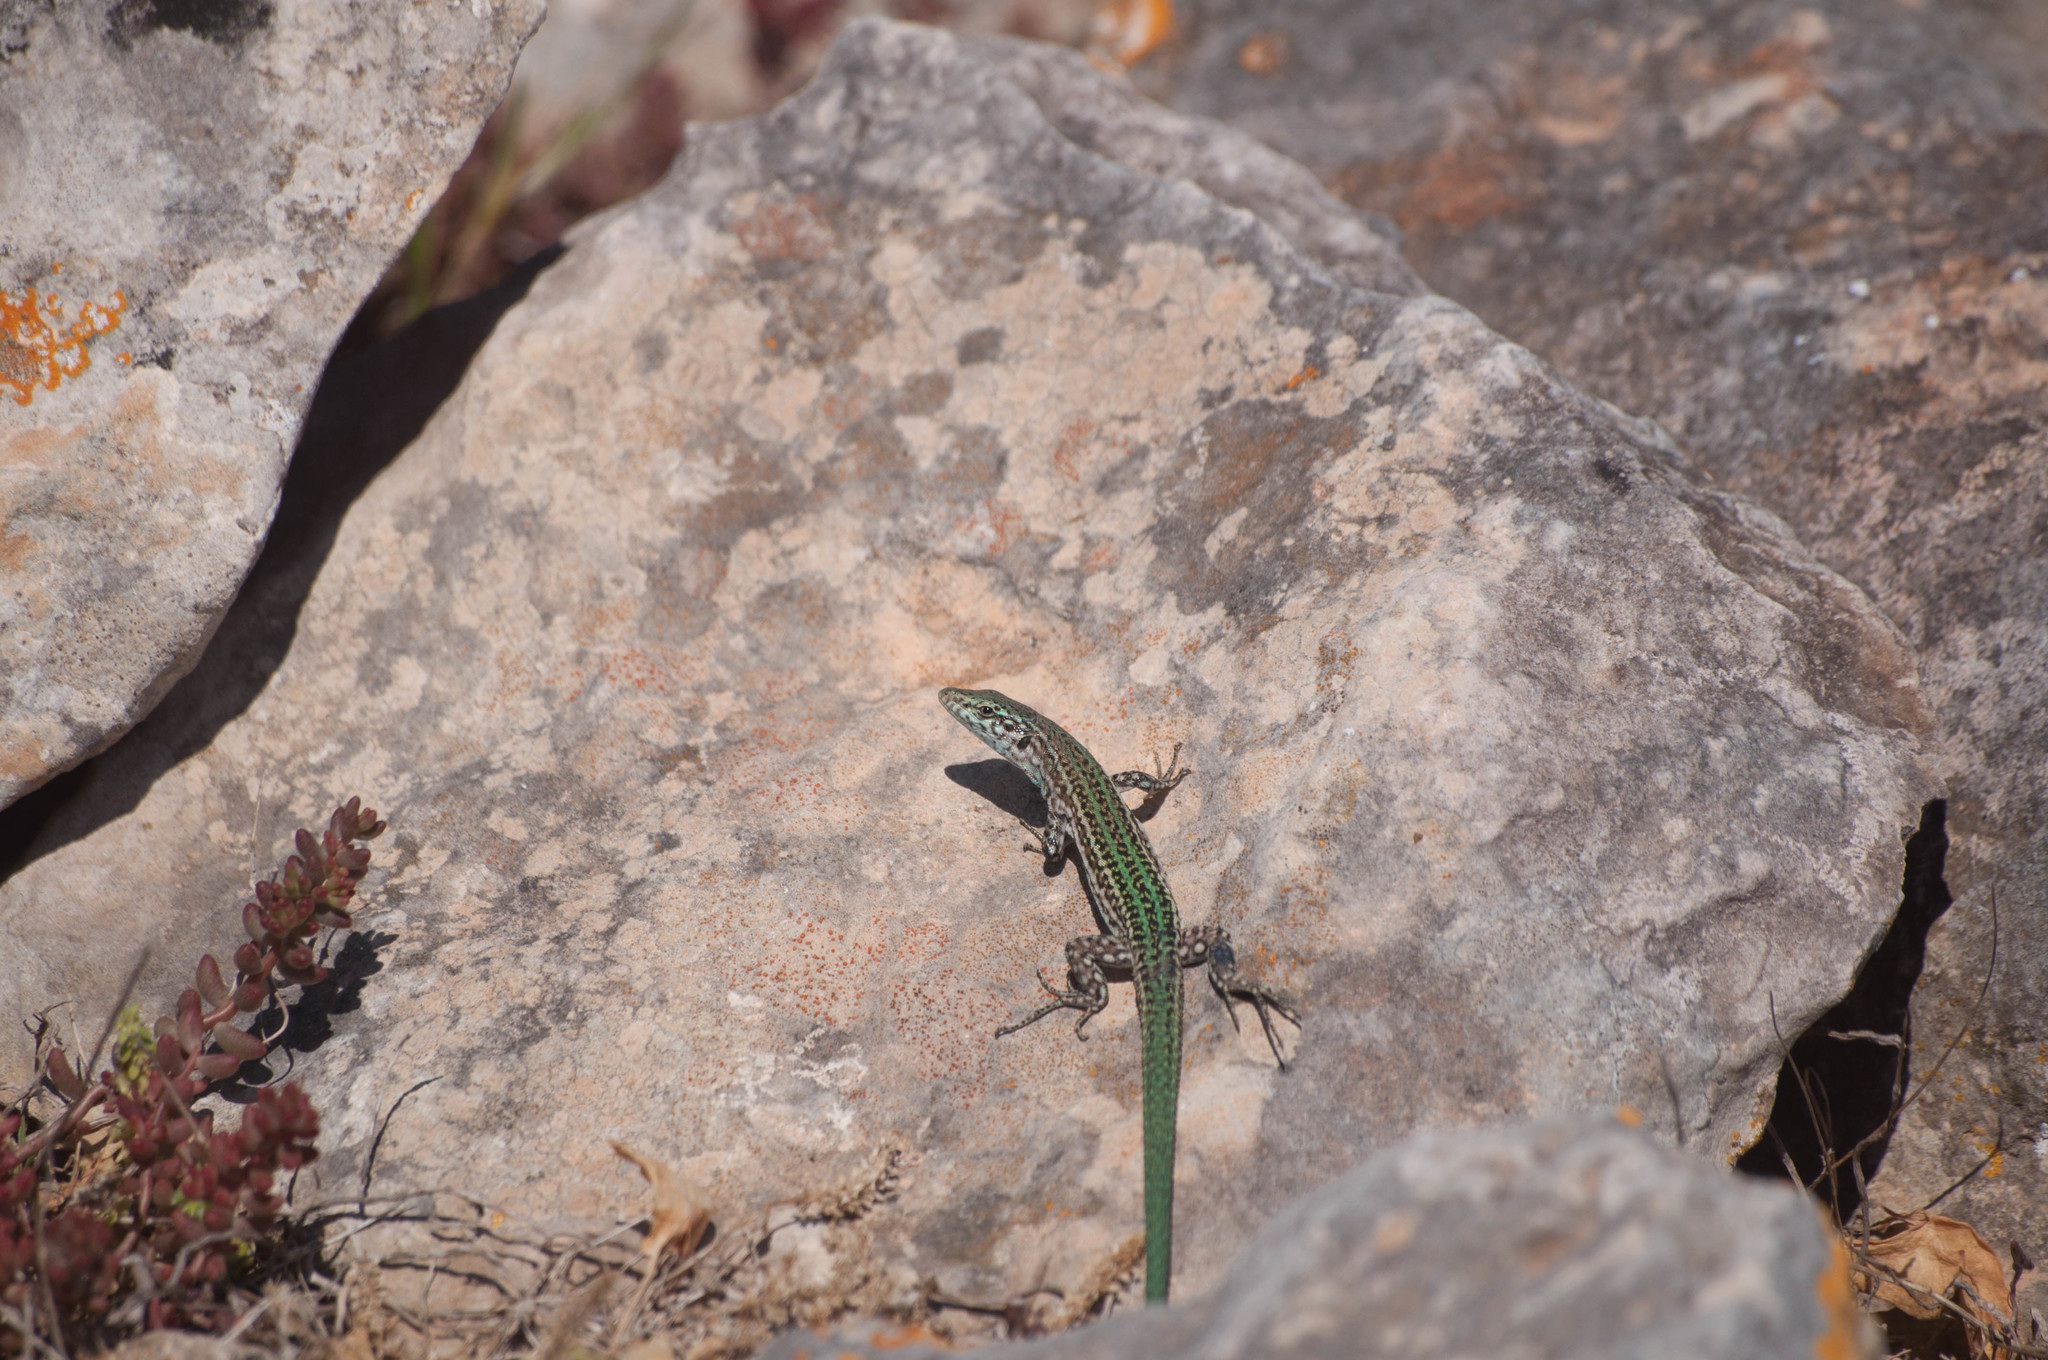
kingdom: Animalia
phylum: Chordata
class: Squamata
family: Lacertidae
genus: Podarcis
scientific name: Podarcis pityusensis
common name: Ibiza wall lizard
